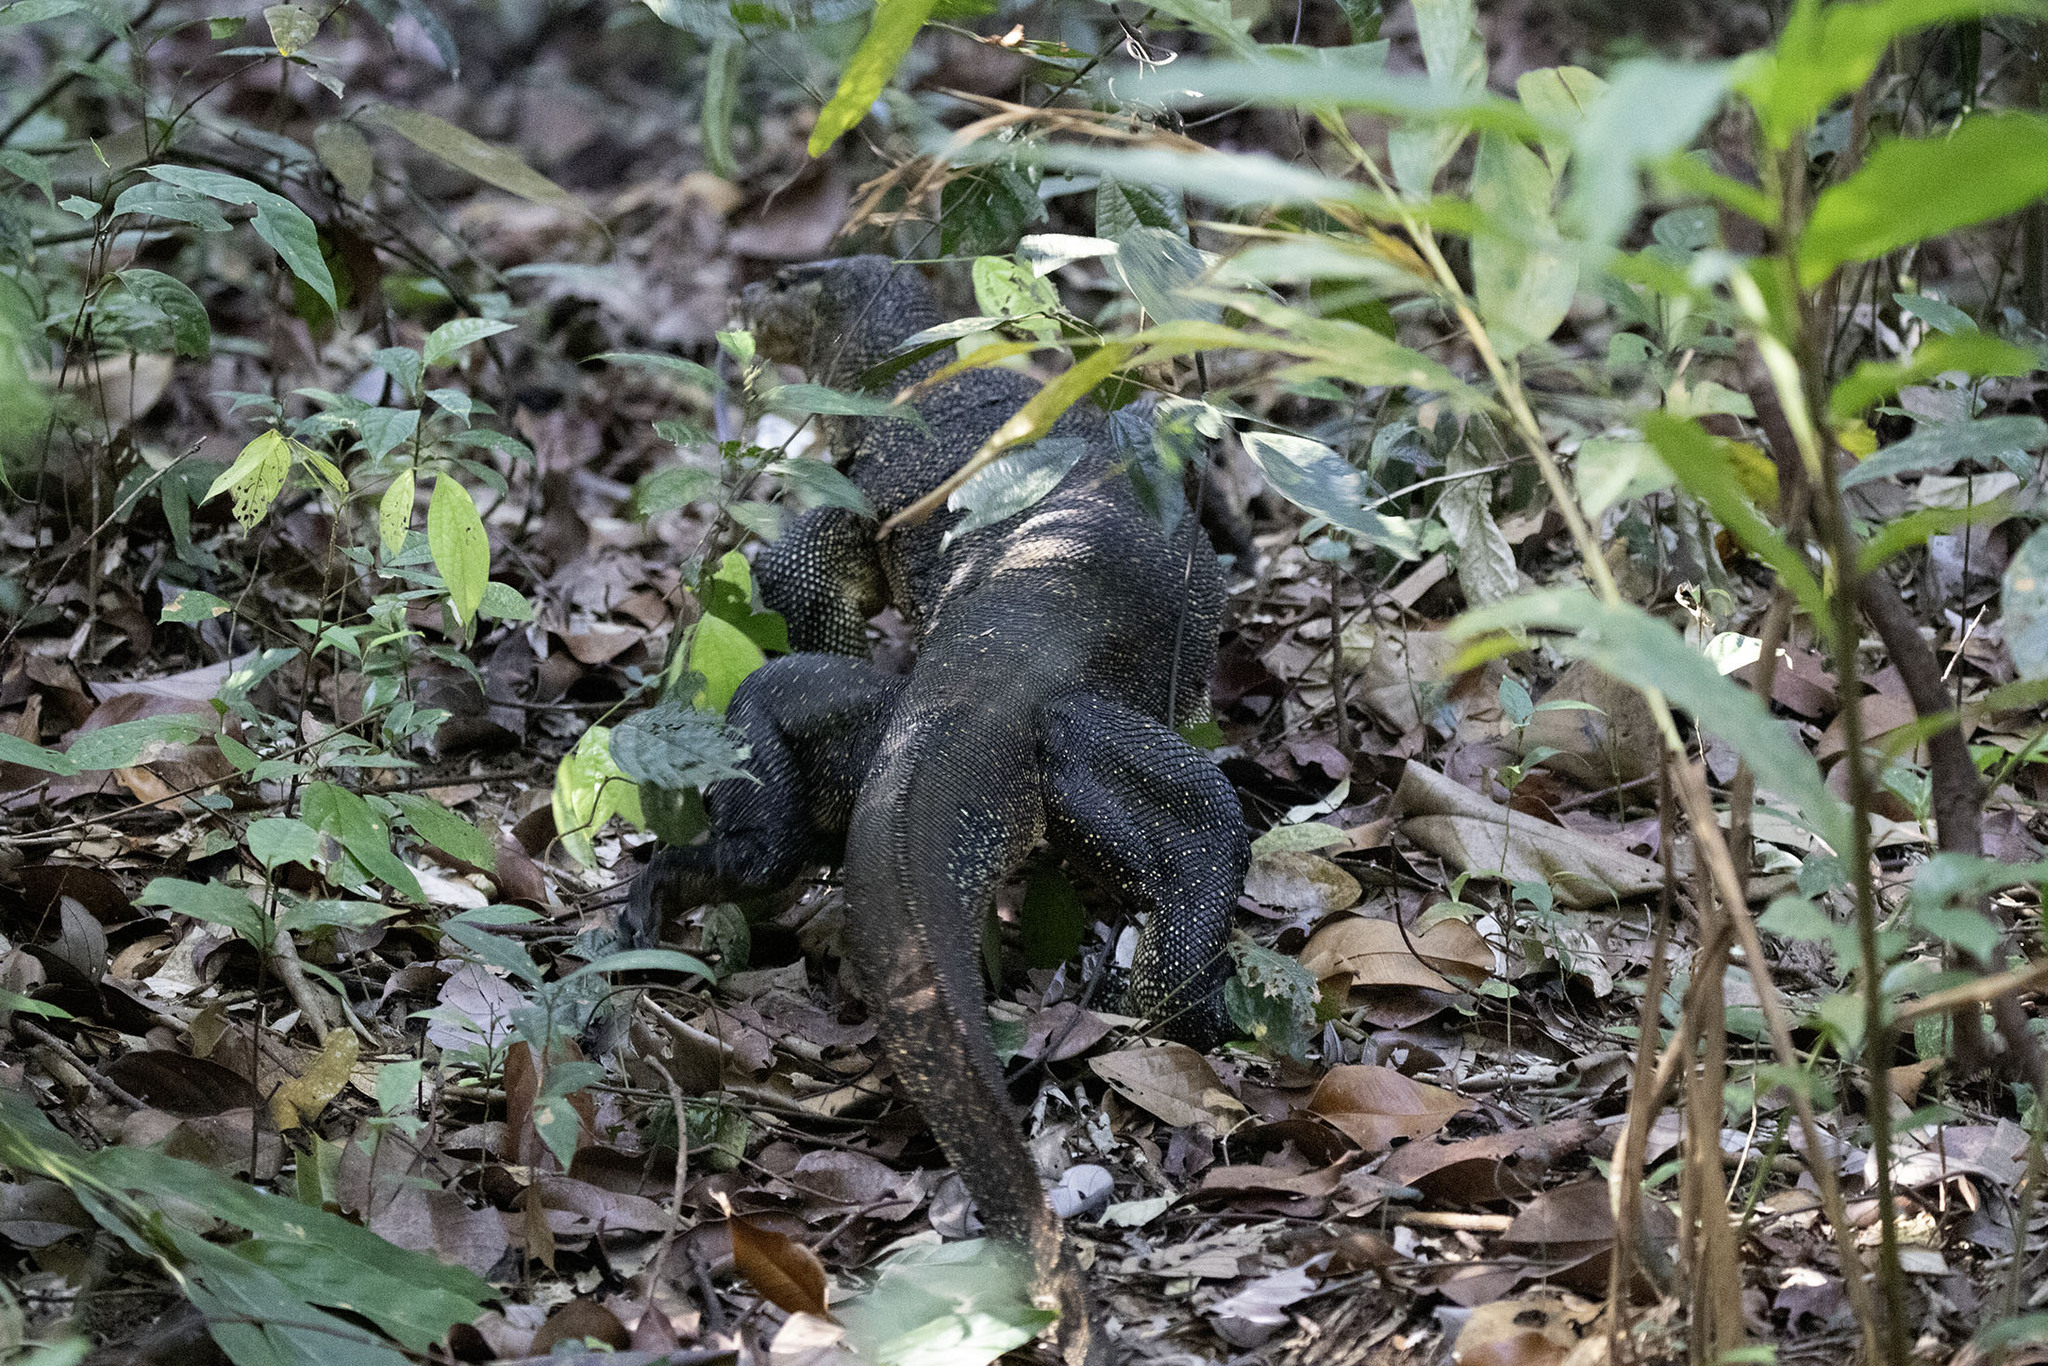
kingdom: Animalia
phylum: Chordata
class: Squamata
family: Varanidae
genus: Varanus
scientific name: Varanus salvator
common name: Common water monitor
